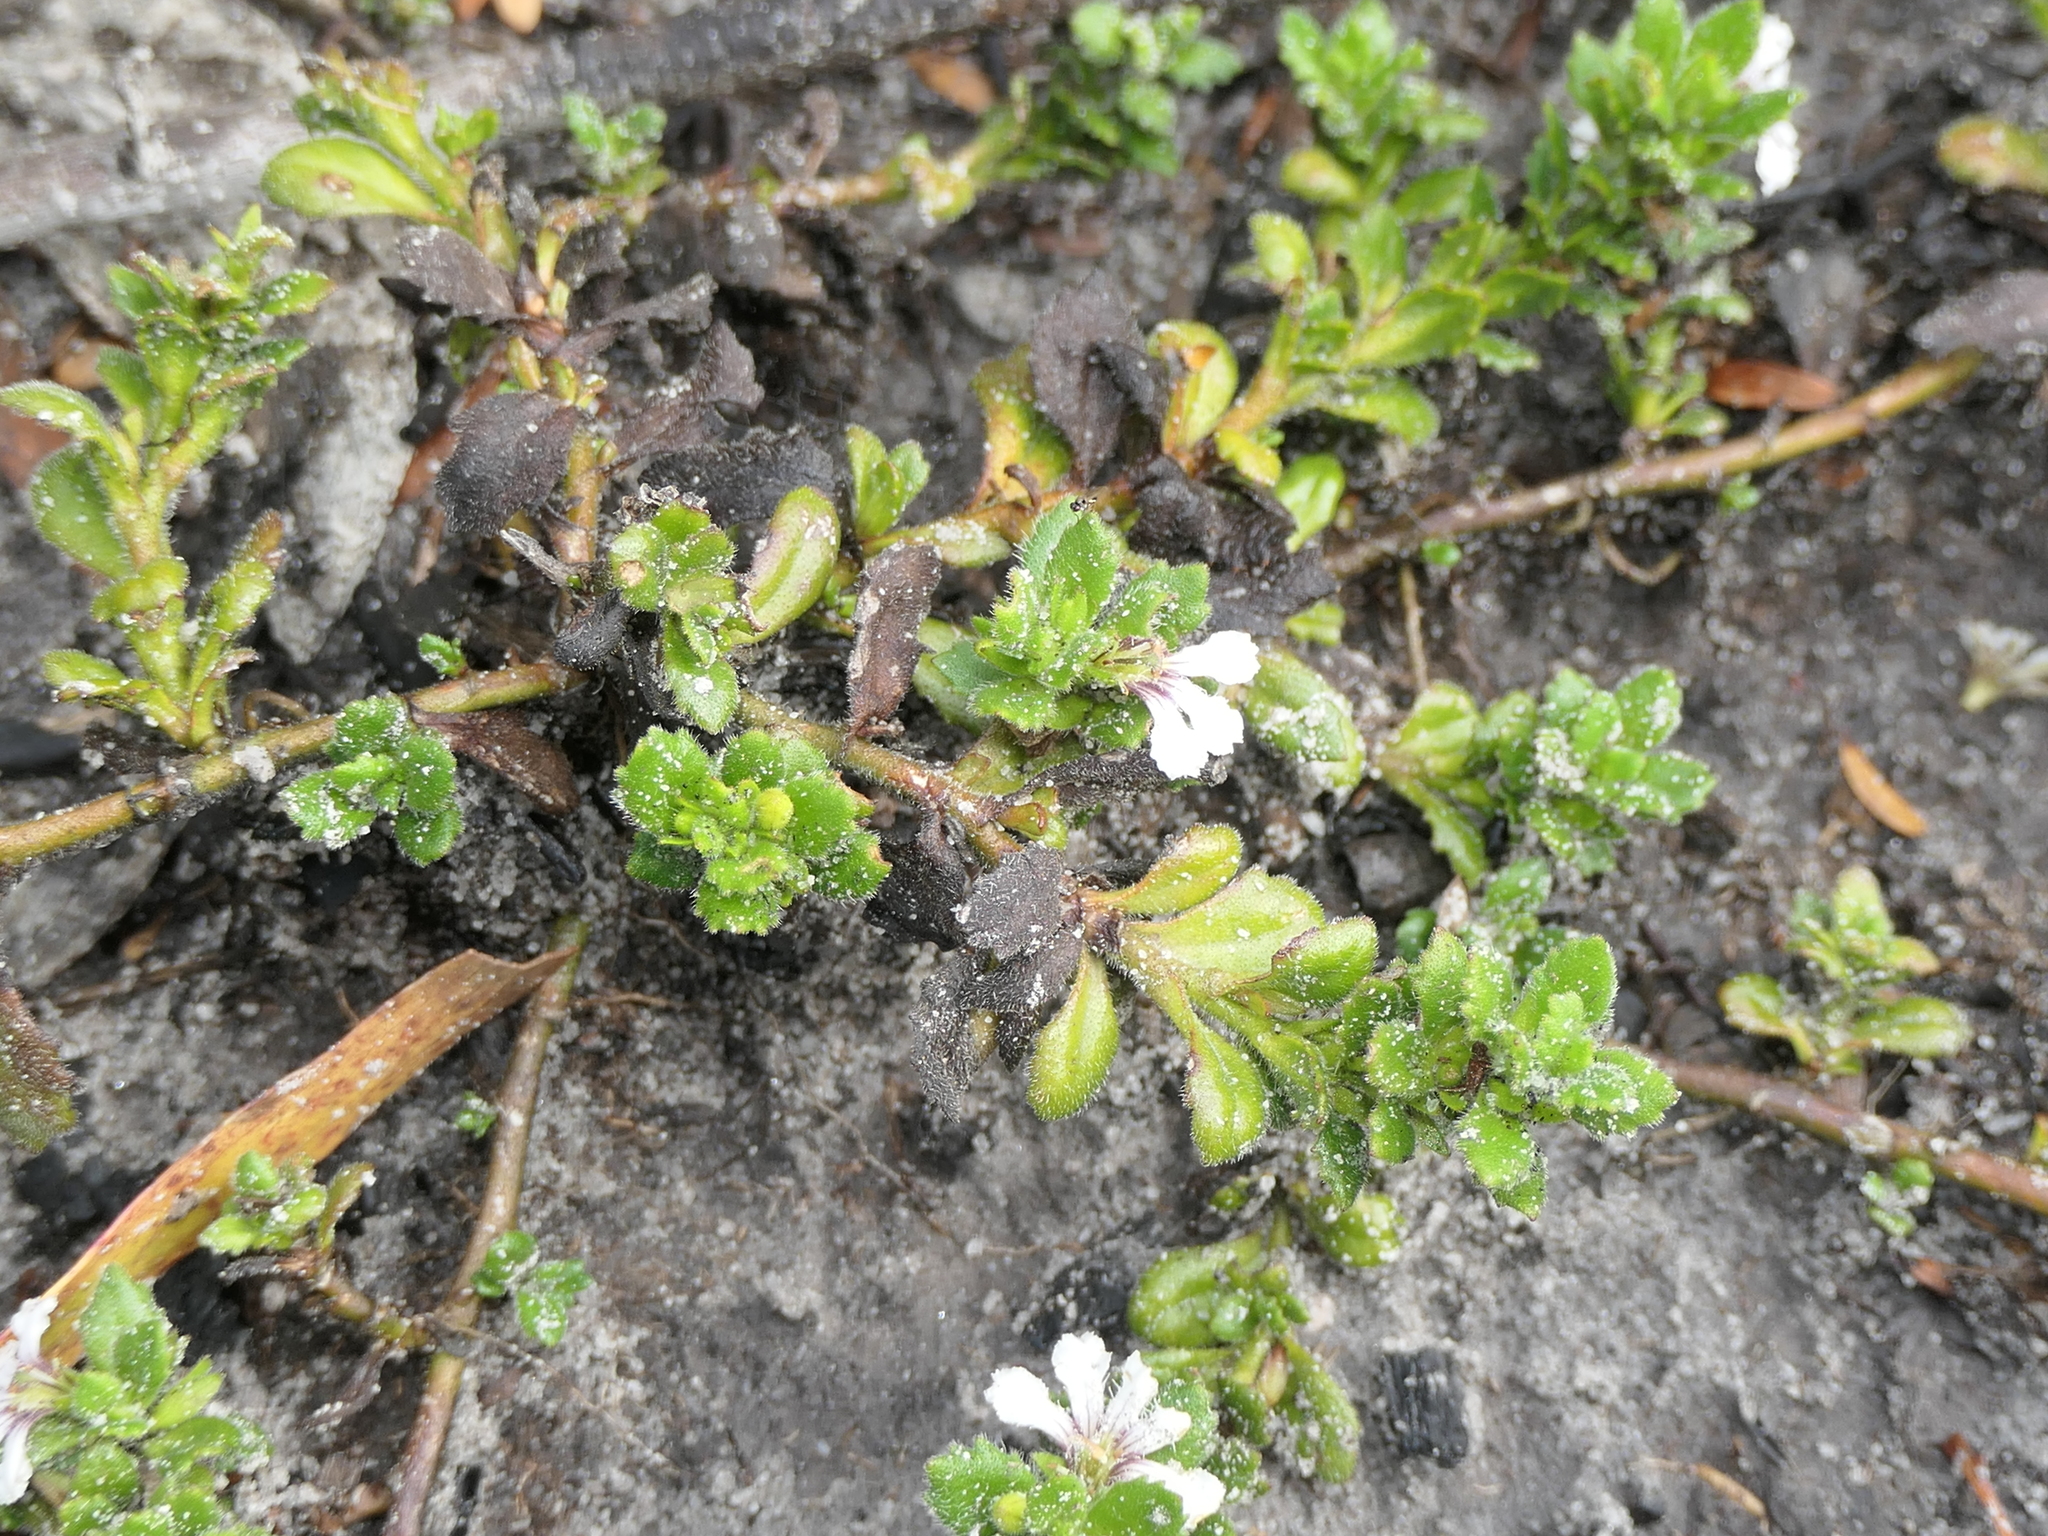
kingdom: Plantae
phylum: Tracheophyta
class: Magnoliopsida
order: Asterales
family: Goodeniaceae
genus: Scaevola
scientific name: Scaevola hookeri
